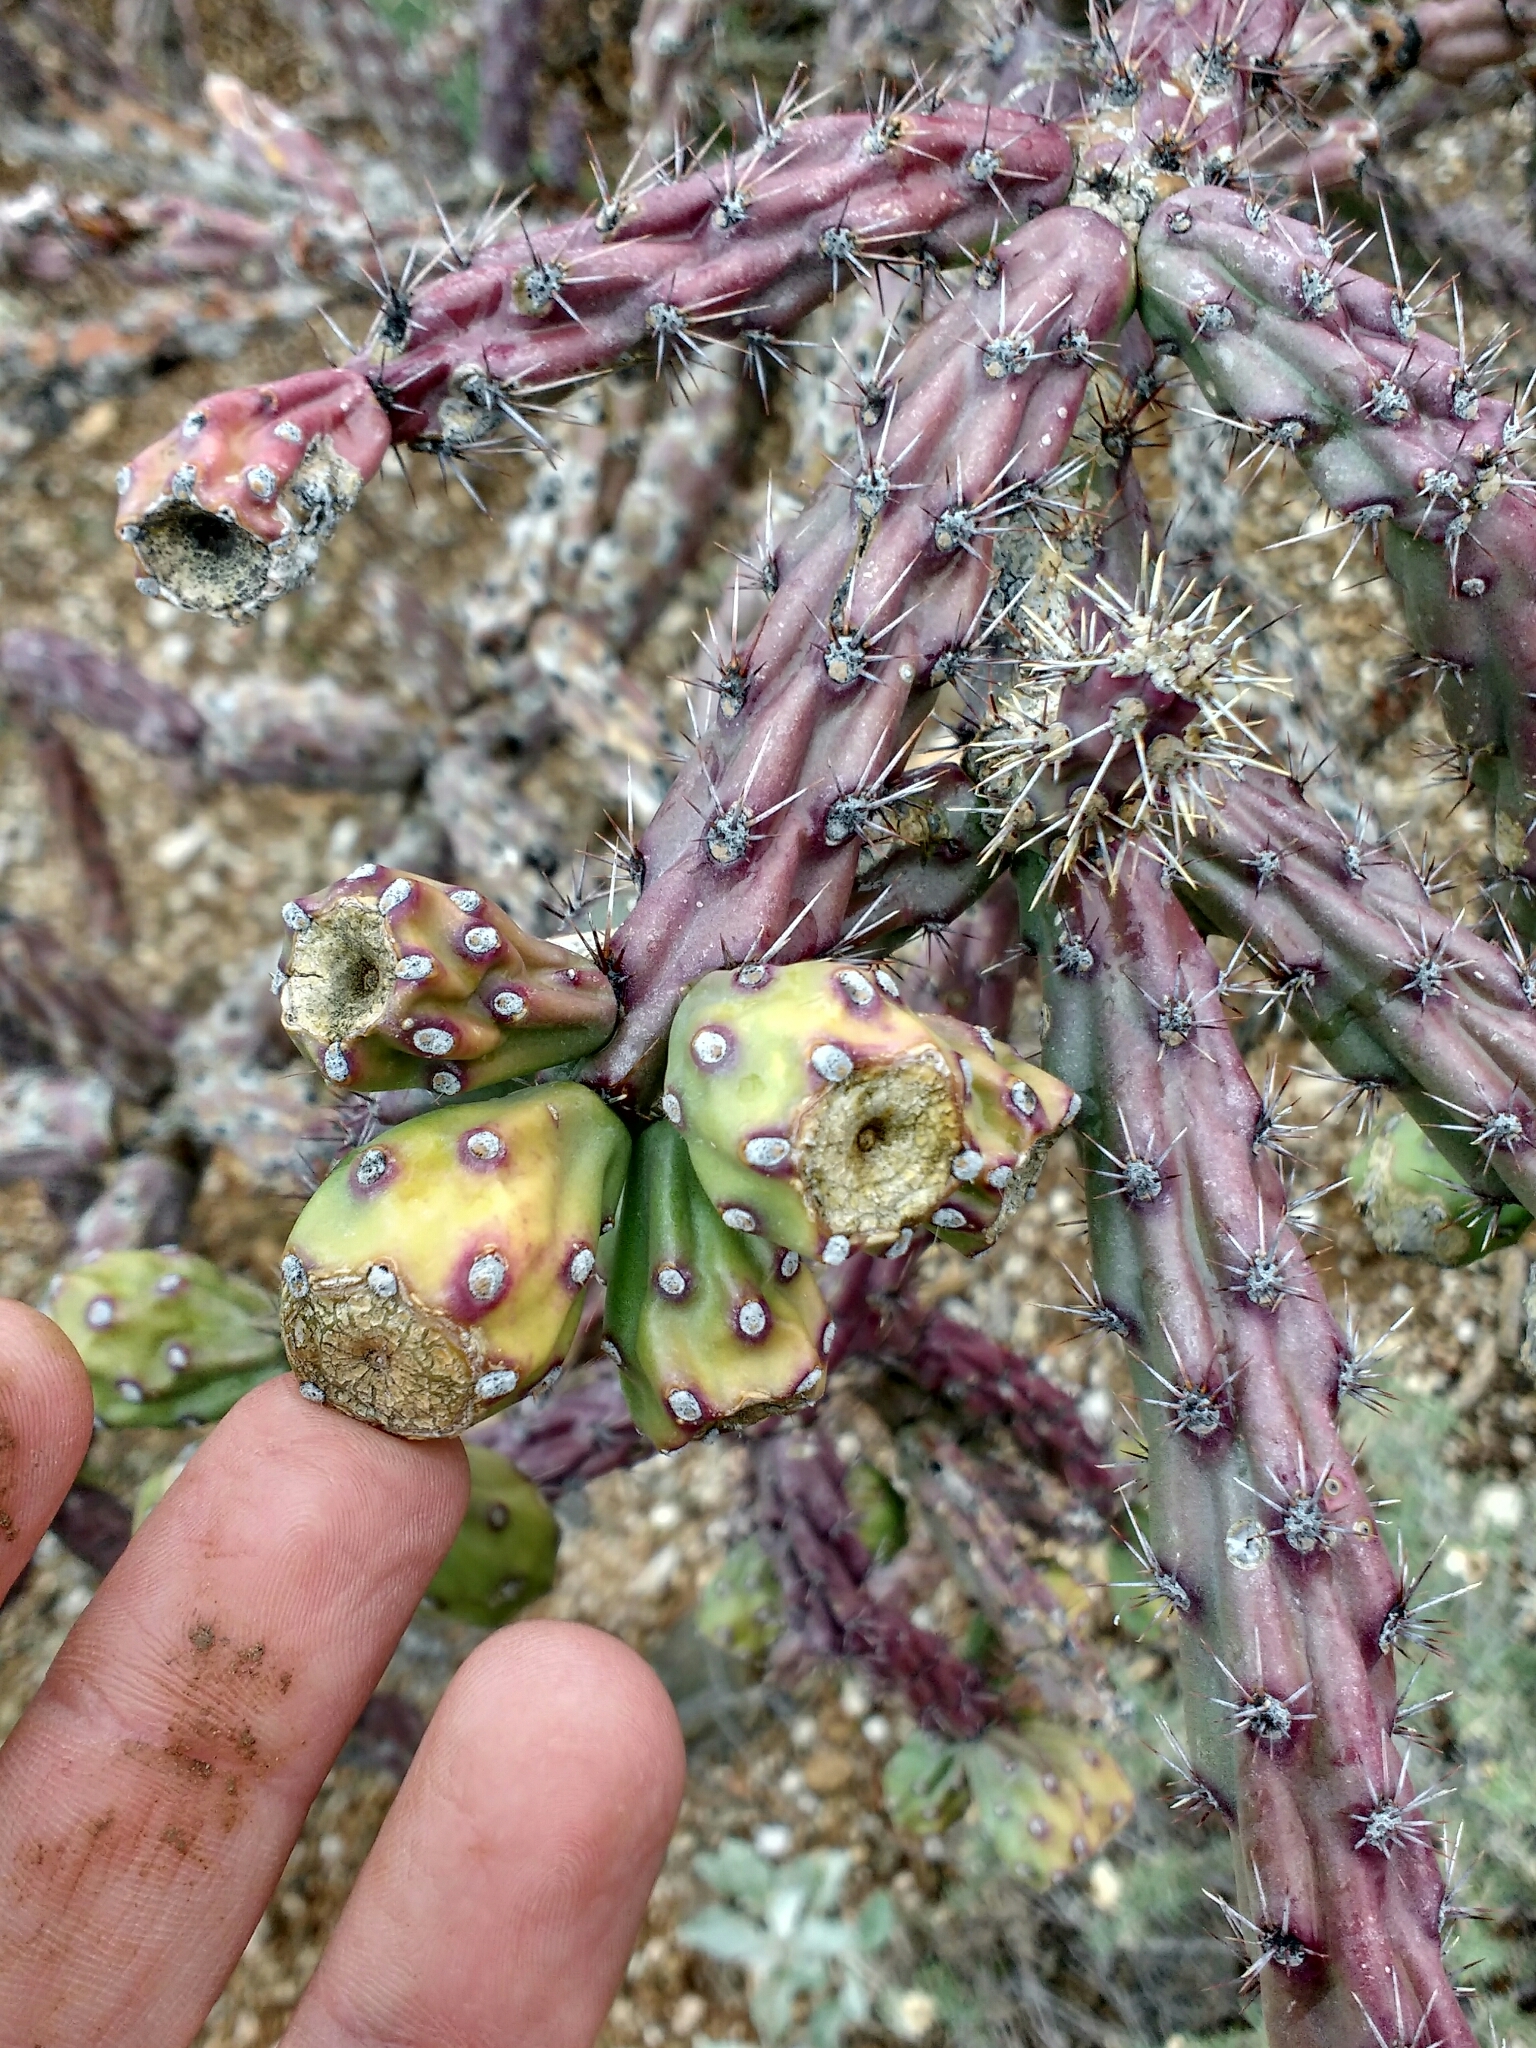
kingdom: Plantae
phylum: Tracheophyta
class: Magnoliopsida
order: Caryophyllales
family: Cactaceae
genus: Cylindropuntia
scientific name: Cylindropuntia thurberi
